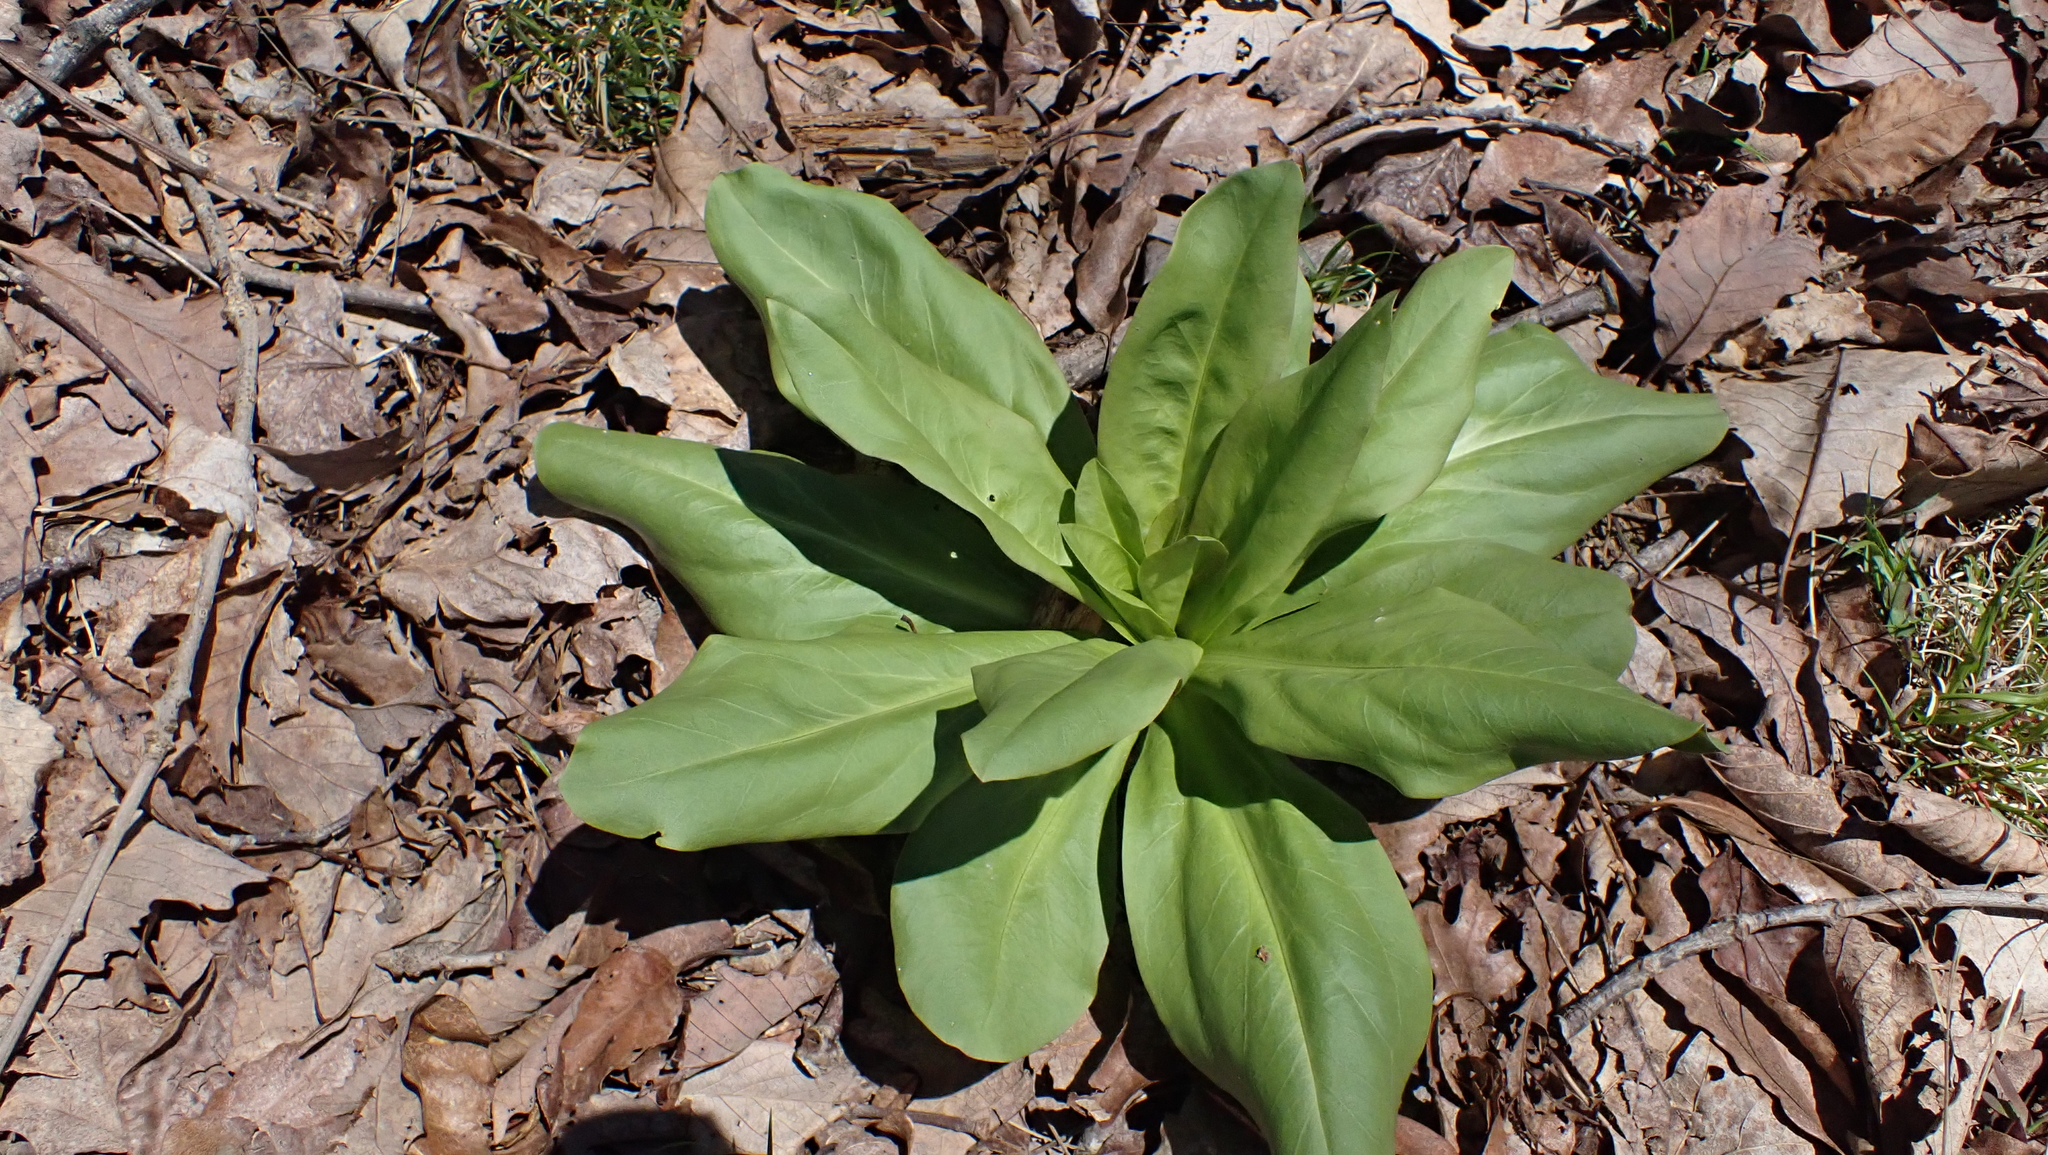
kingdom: Plantae
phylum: Tracheophyta
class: Magnoliopsida
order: Gentianales
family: Gentianaceae
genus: Frasera
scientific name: Frasera caroliniensis
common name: American columbo
